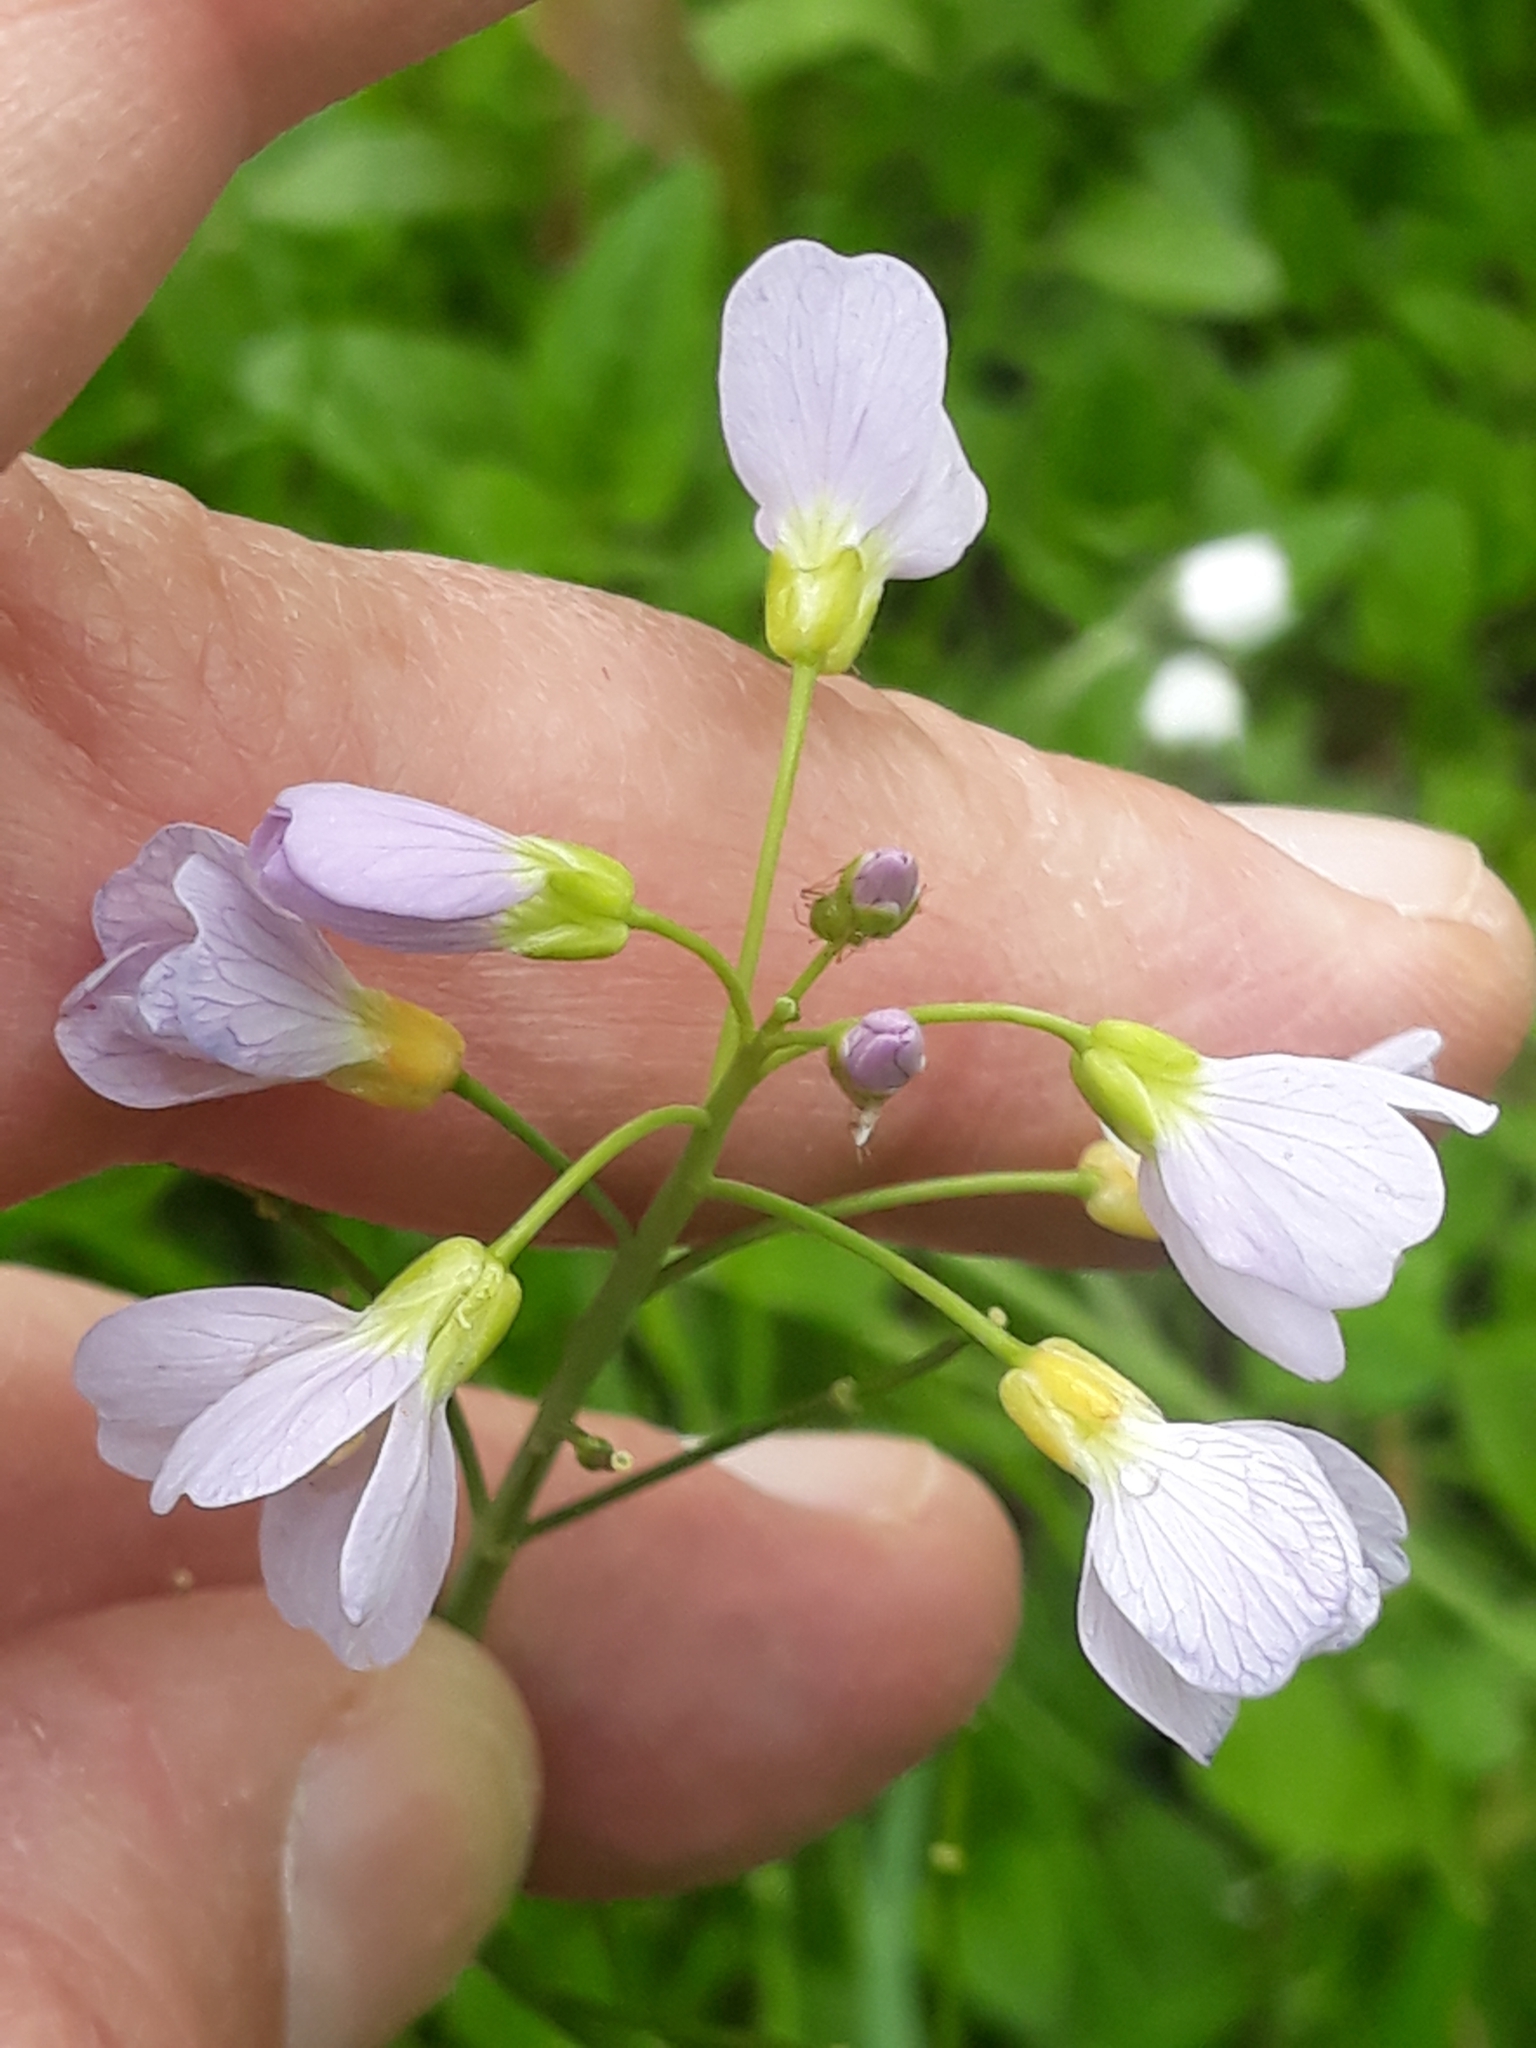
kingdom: Plantae
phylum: Tracheophyta
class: Magnoliopsida
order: Brassicales
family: Brassicaceae
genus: Cardamine
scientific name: Cardamine pratensis
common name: Cuckoo flower
